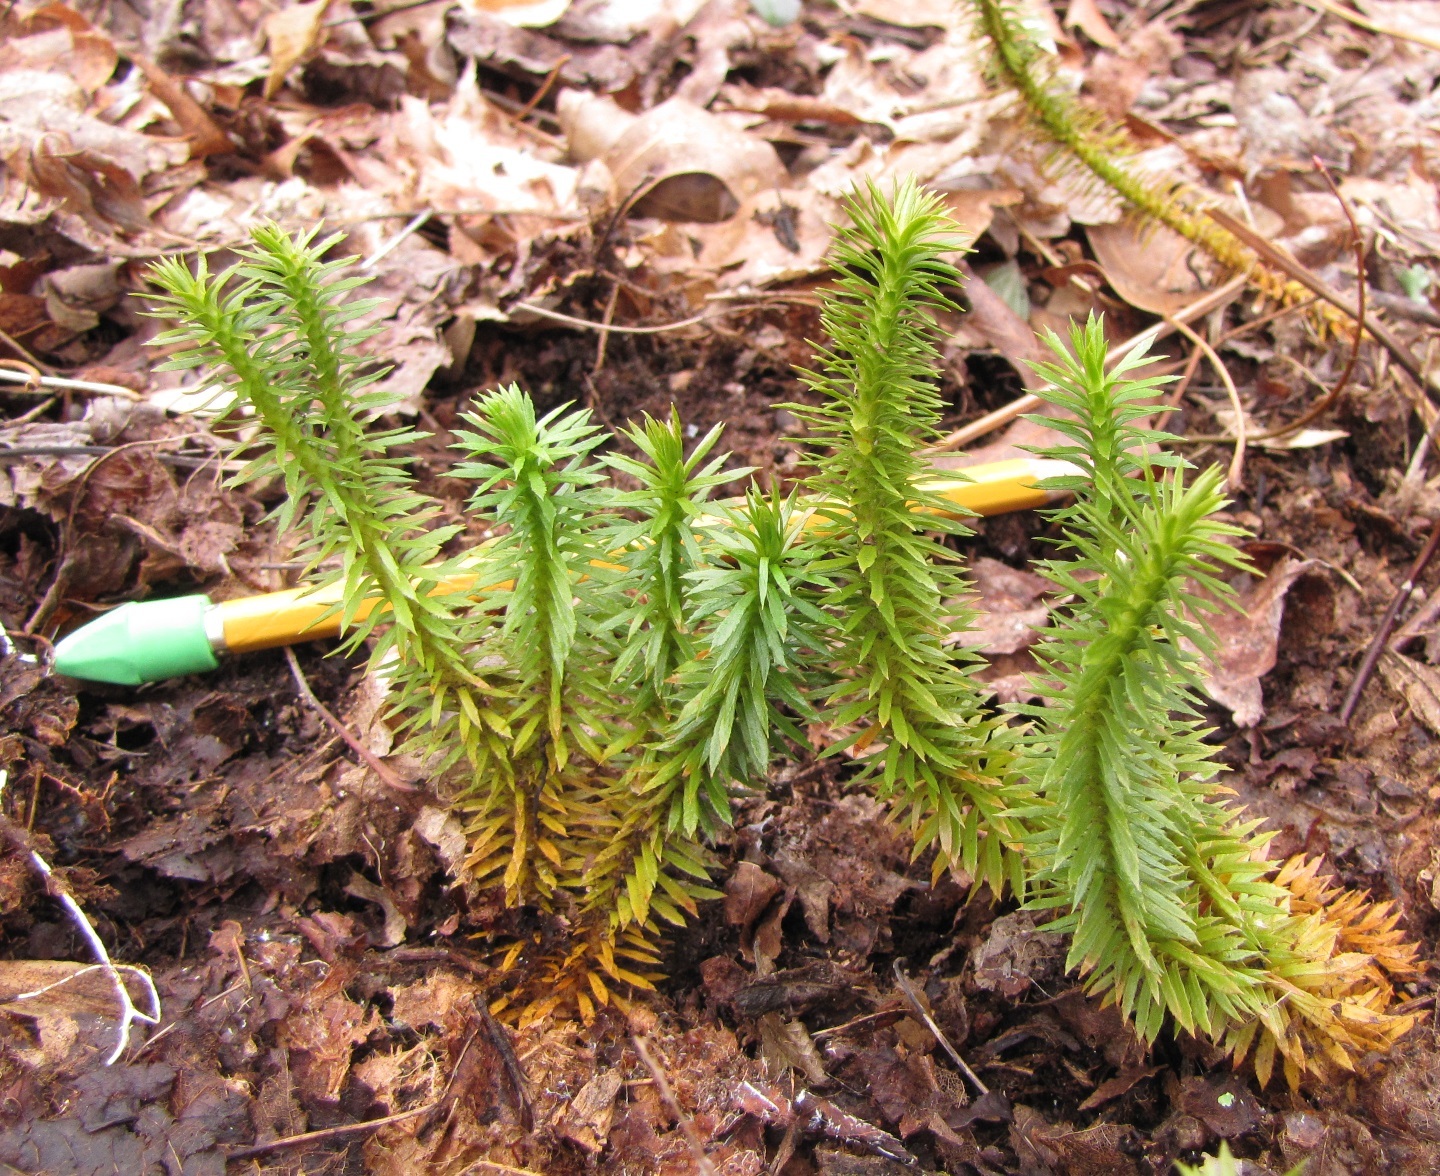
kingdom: Plantae
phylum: Tracheophyta
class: Lycopodiopsida
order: Lycopodiales
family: Lycopodiaceae
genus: Huperzia
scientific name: Huperzia lucidula
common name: Shining clubmoss
